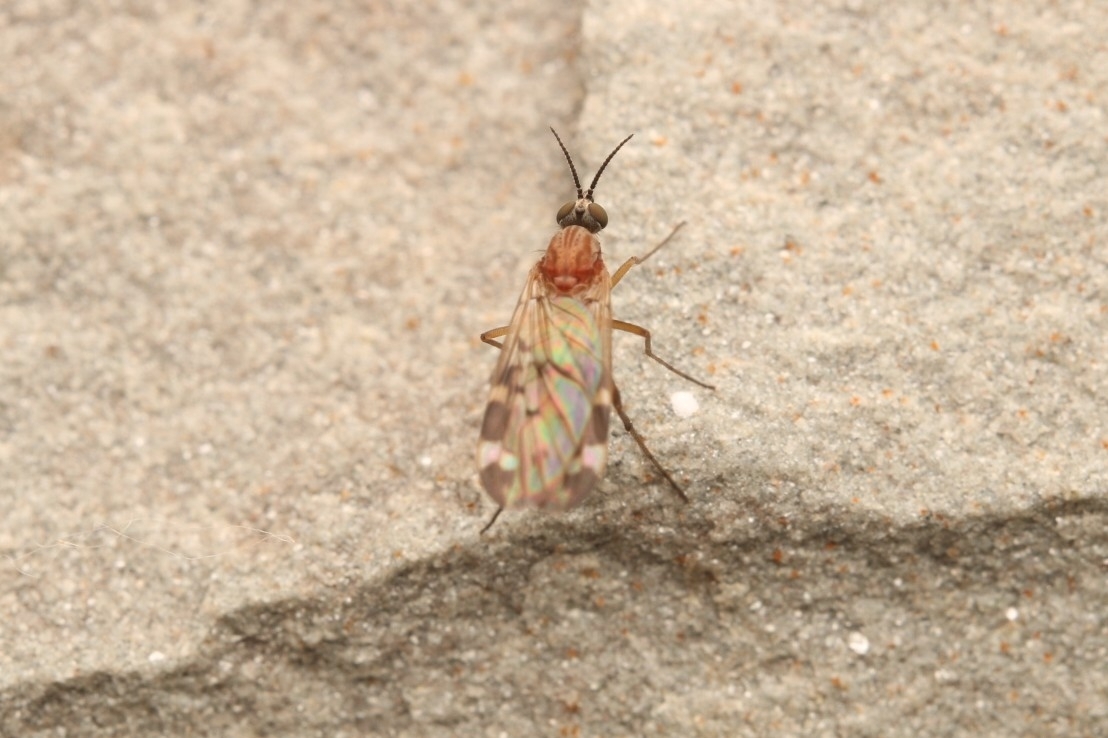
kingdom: Animalia
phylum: Arthropoda
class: Insecta
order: Diptera
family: Anisopodidae
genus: Sylvicola
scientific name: Sylvicola alternata
